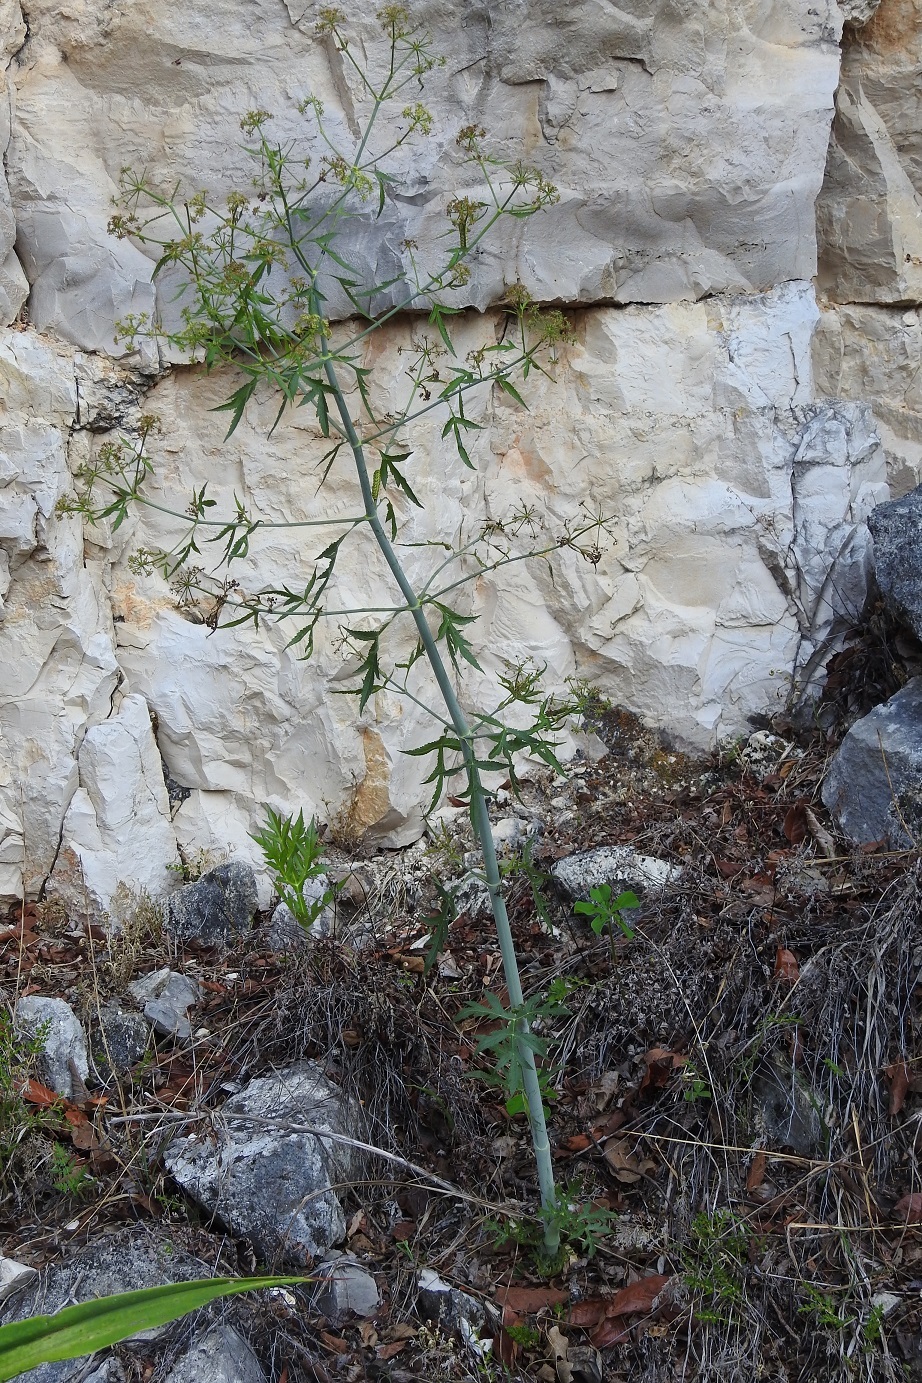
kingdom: Plantae
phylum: Tracheophyta
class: Magnoliopsida
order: Apiales
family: Apiaceae
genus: Prionosciadium
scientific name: Prionosciadium nelsonii
